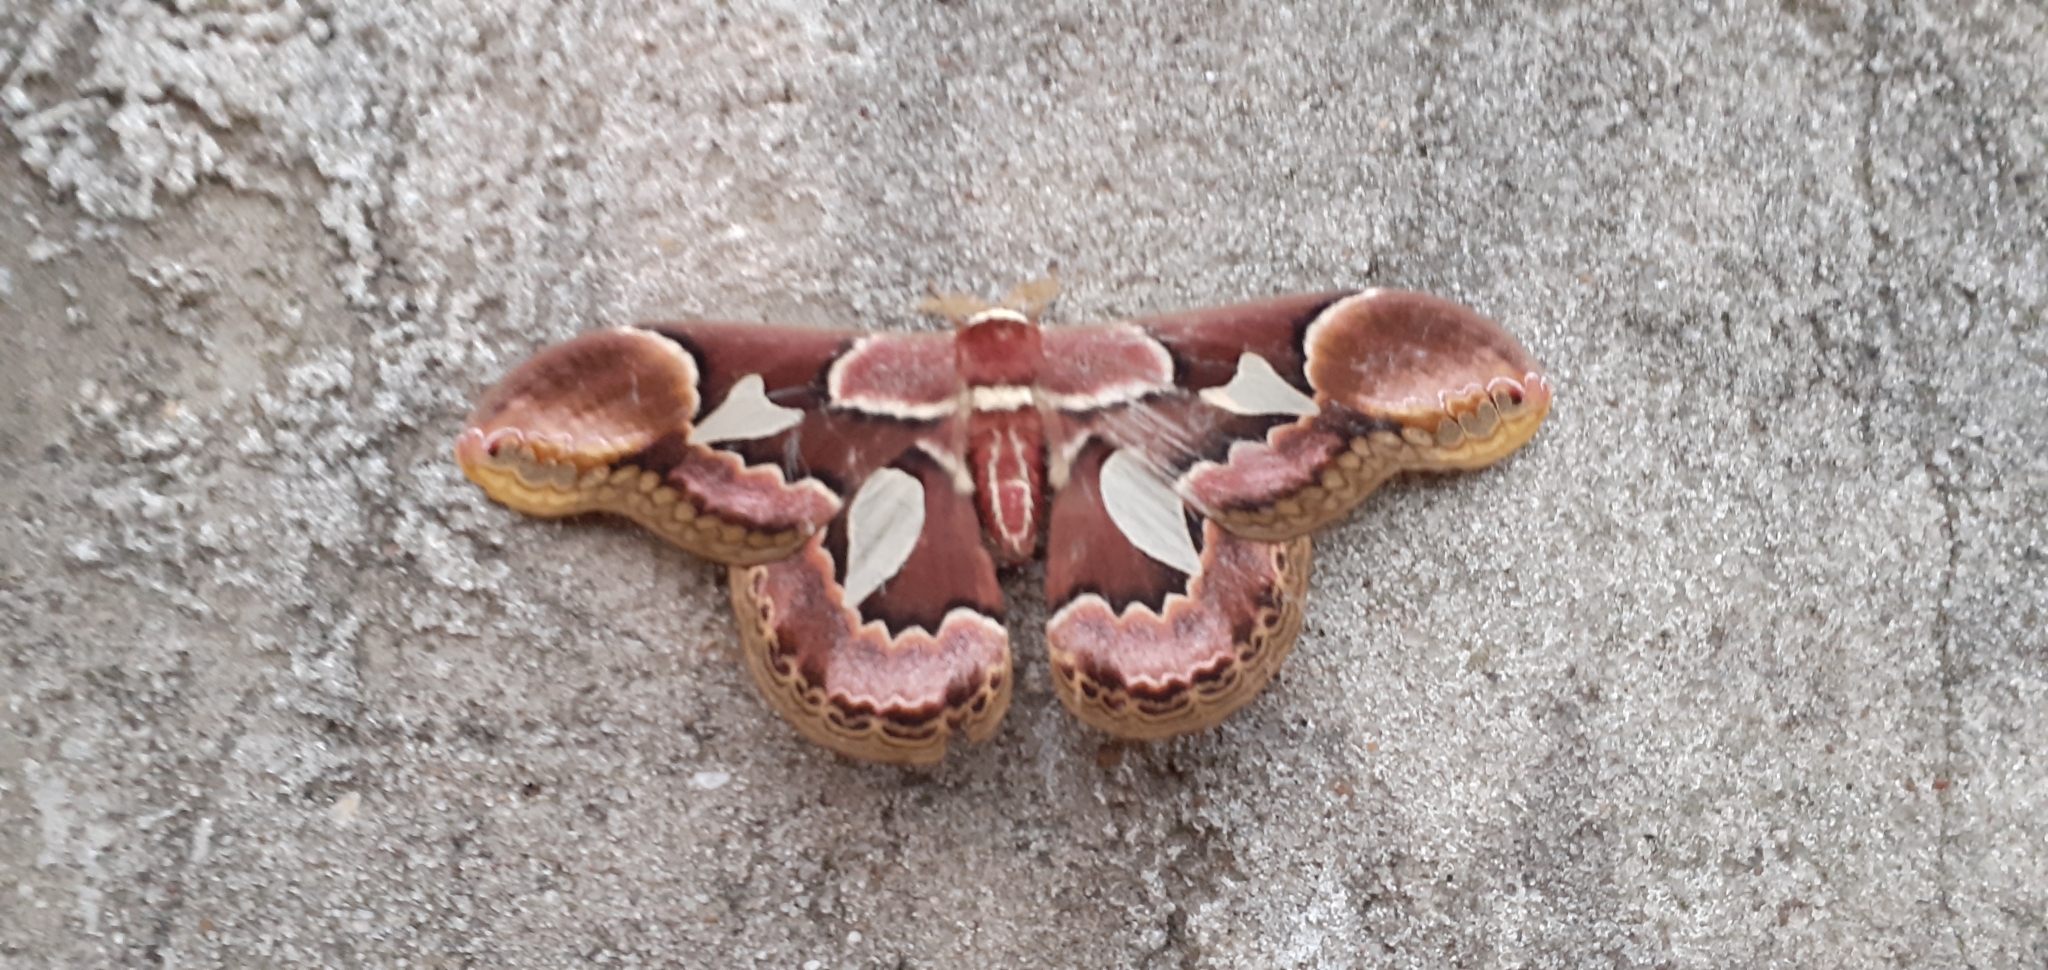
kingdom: Animalia
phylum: Arthropoda
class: Insecta
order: Lepidoptera
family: Saturniidae
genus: Rothschildia
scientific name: Rothschildia erycina
